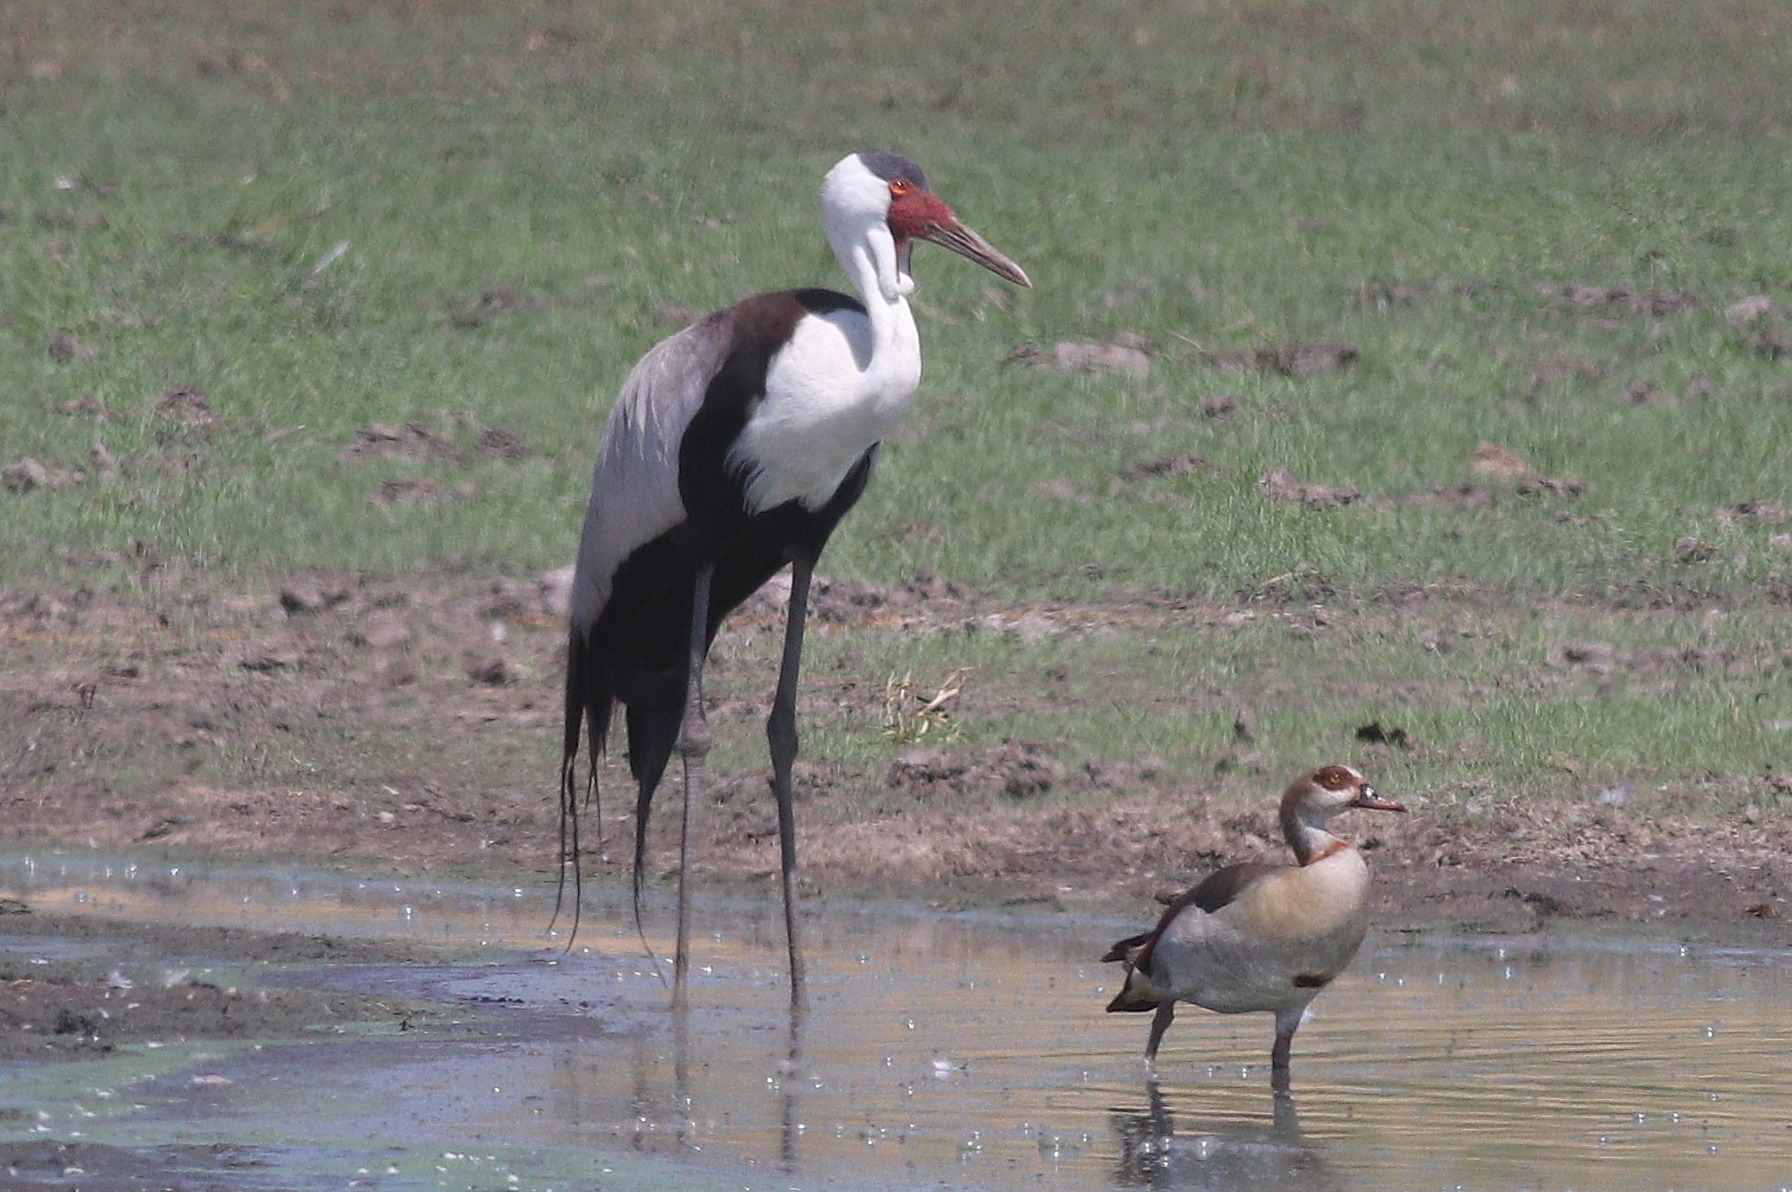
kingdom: Animalia
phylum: Chordata
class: Aves
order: Gruiformes
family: Gruidae
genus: Bugeranus
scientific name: Bugeranus carunculatus
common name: Wattled crane
